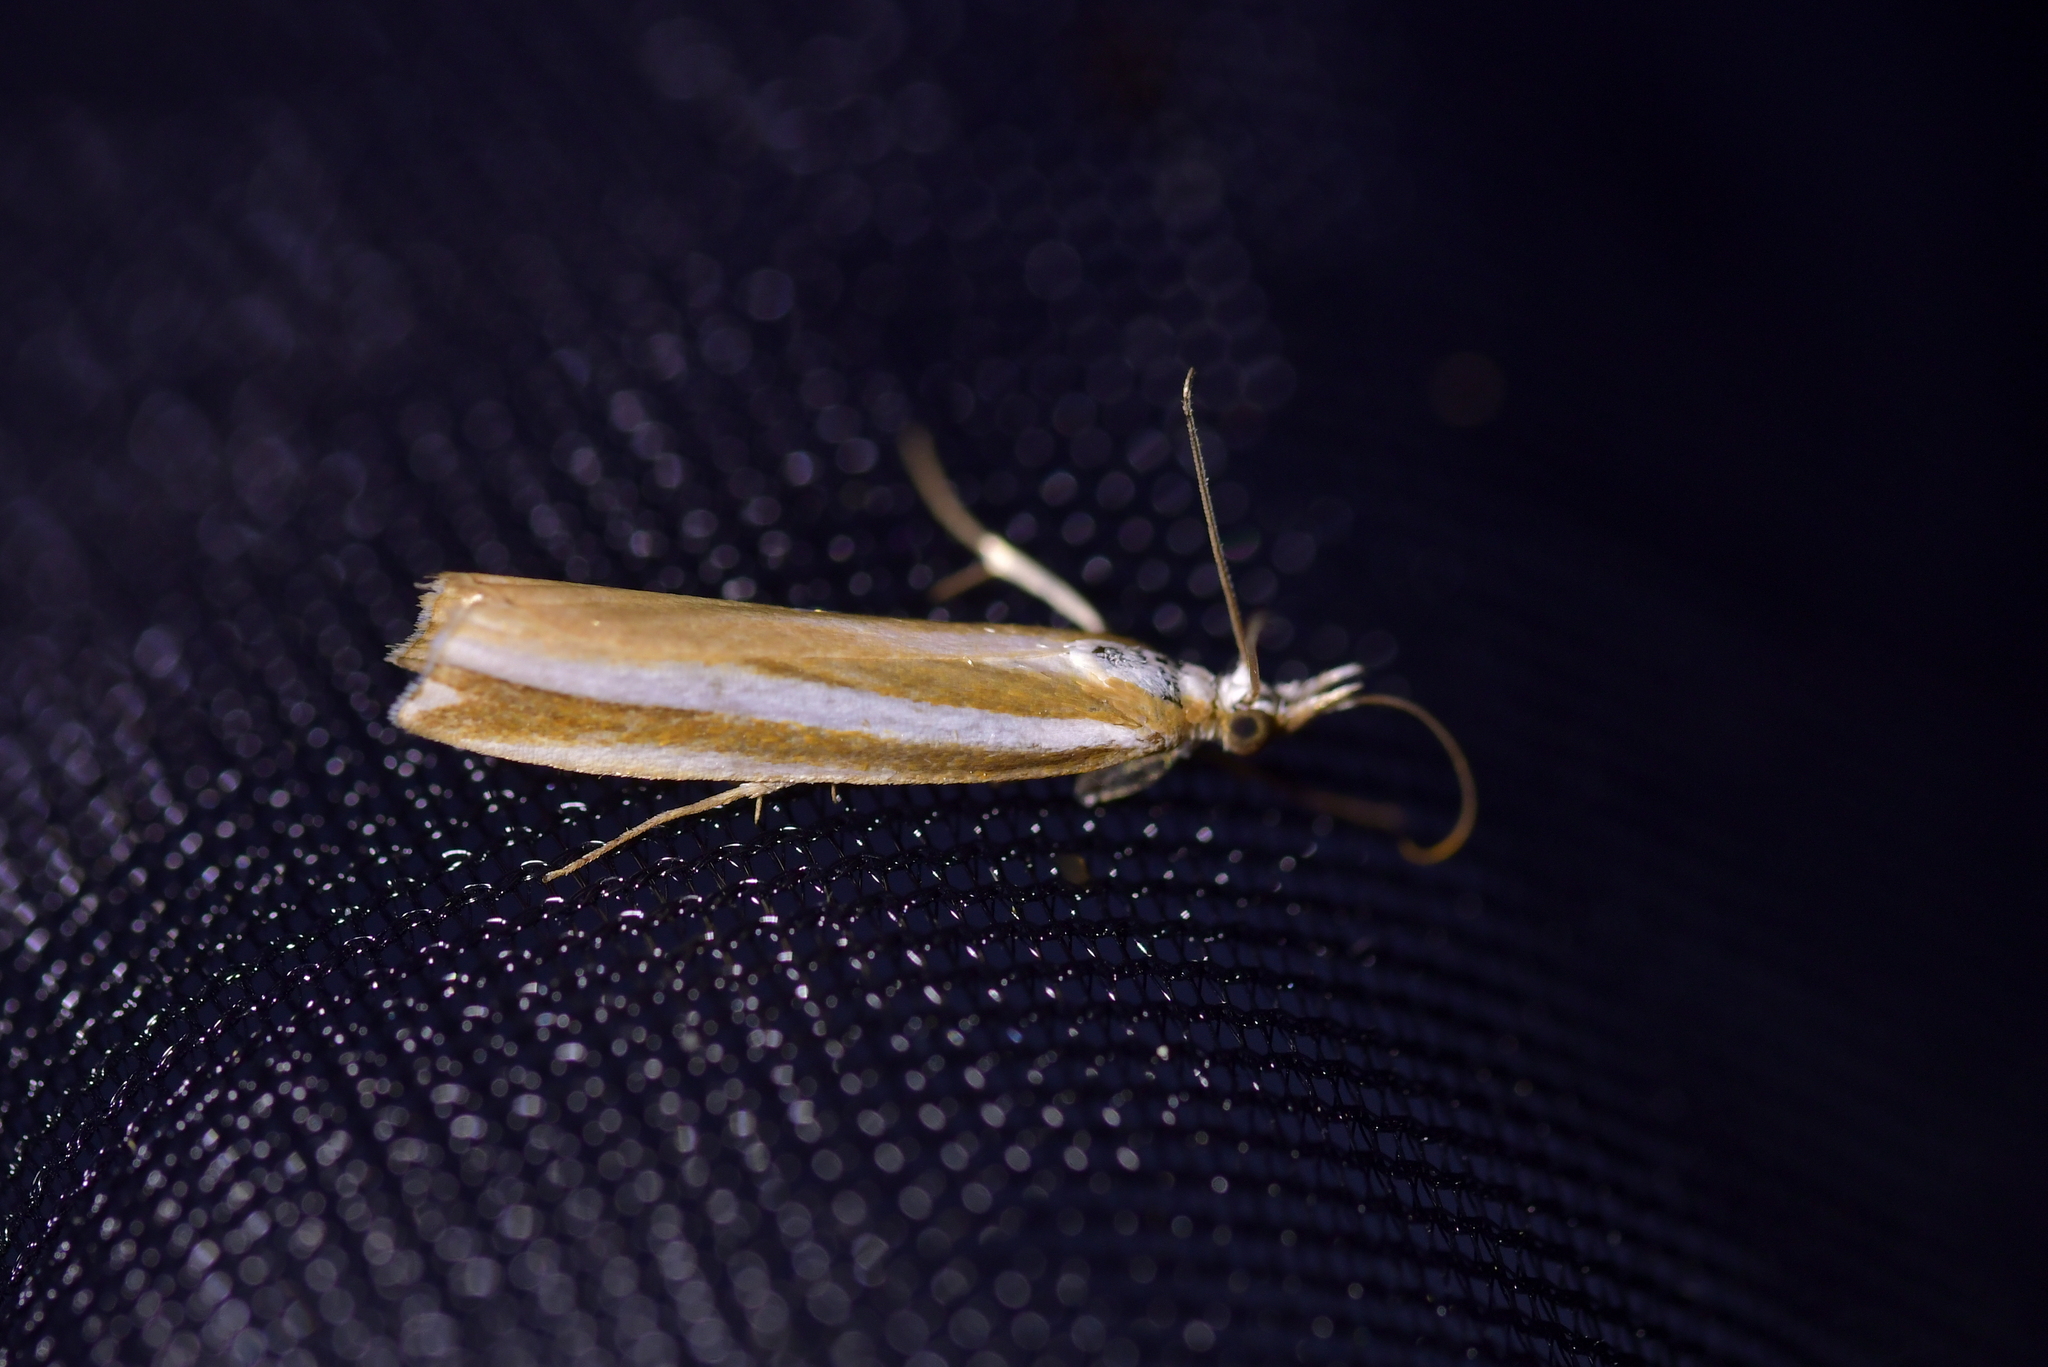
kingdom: Animalia
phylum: Arthropoda
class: Insecta
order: Lepidoptera
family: Crambidae
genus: Orocrambus
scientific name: Orocrambus apicellus
